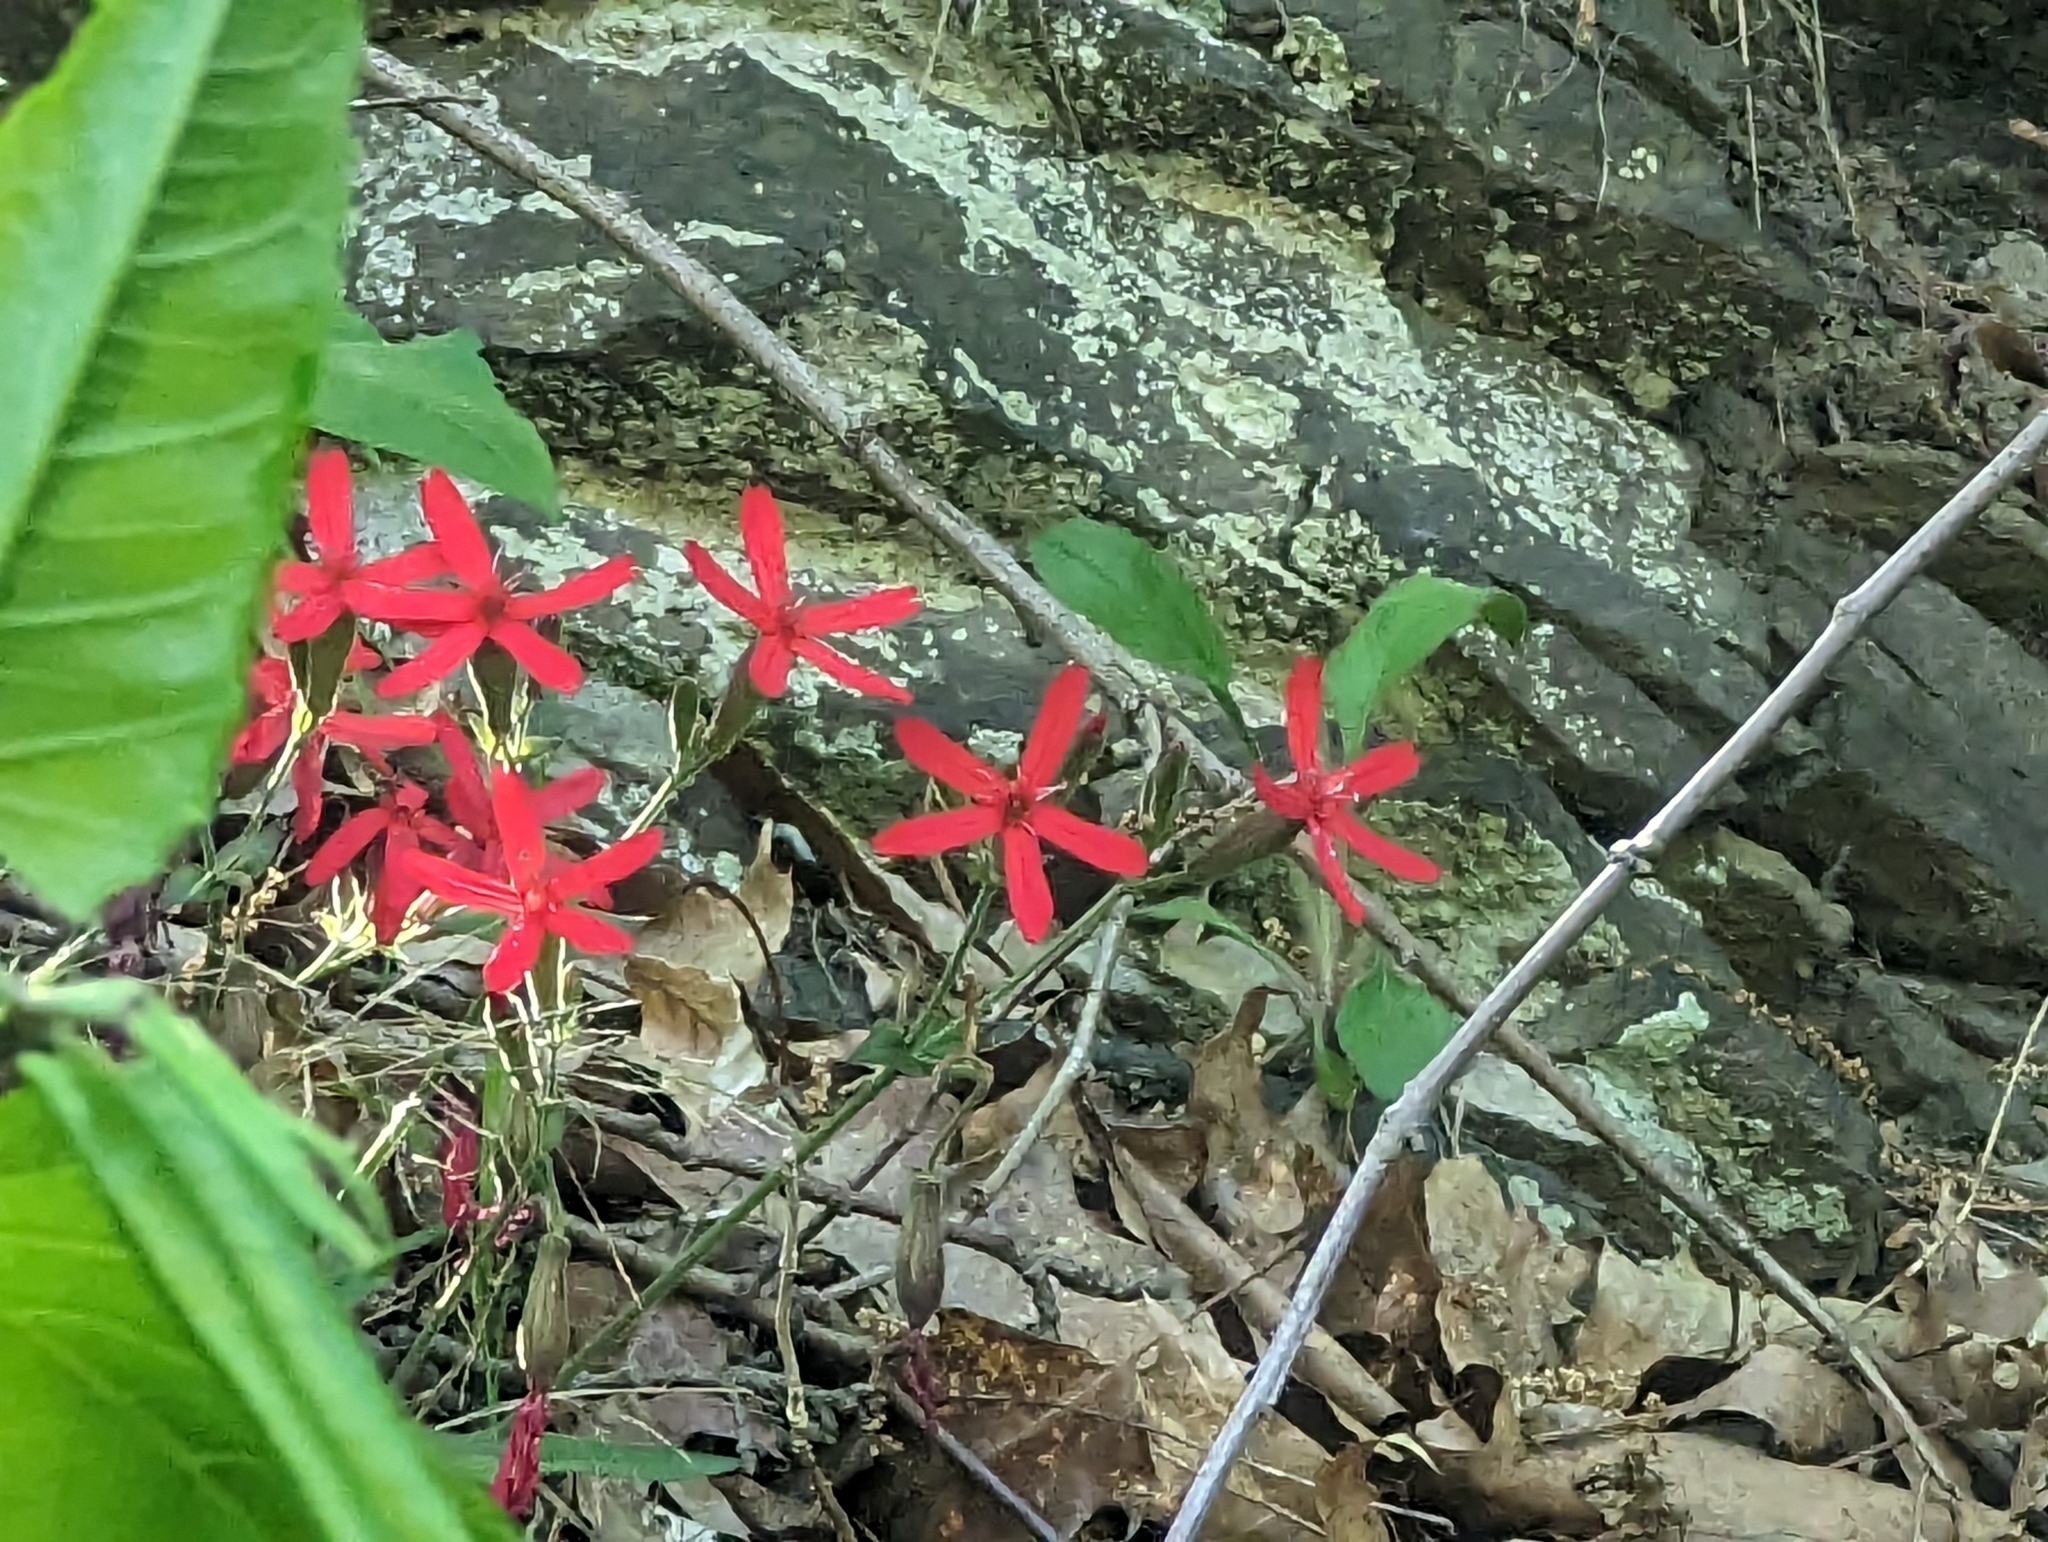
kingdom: Plantae
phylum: Tracheophyta
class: Magnoliopsida
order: Caryophyllales
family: Caryophyllaceae
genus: Silene
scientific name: Silene virginica
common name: Fire-pink
